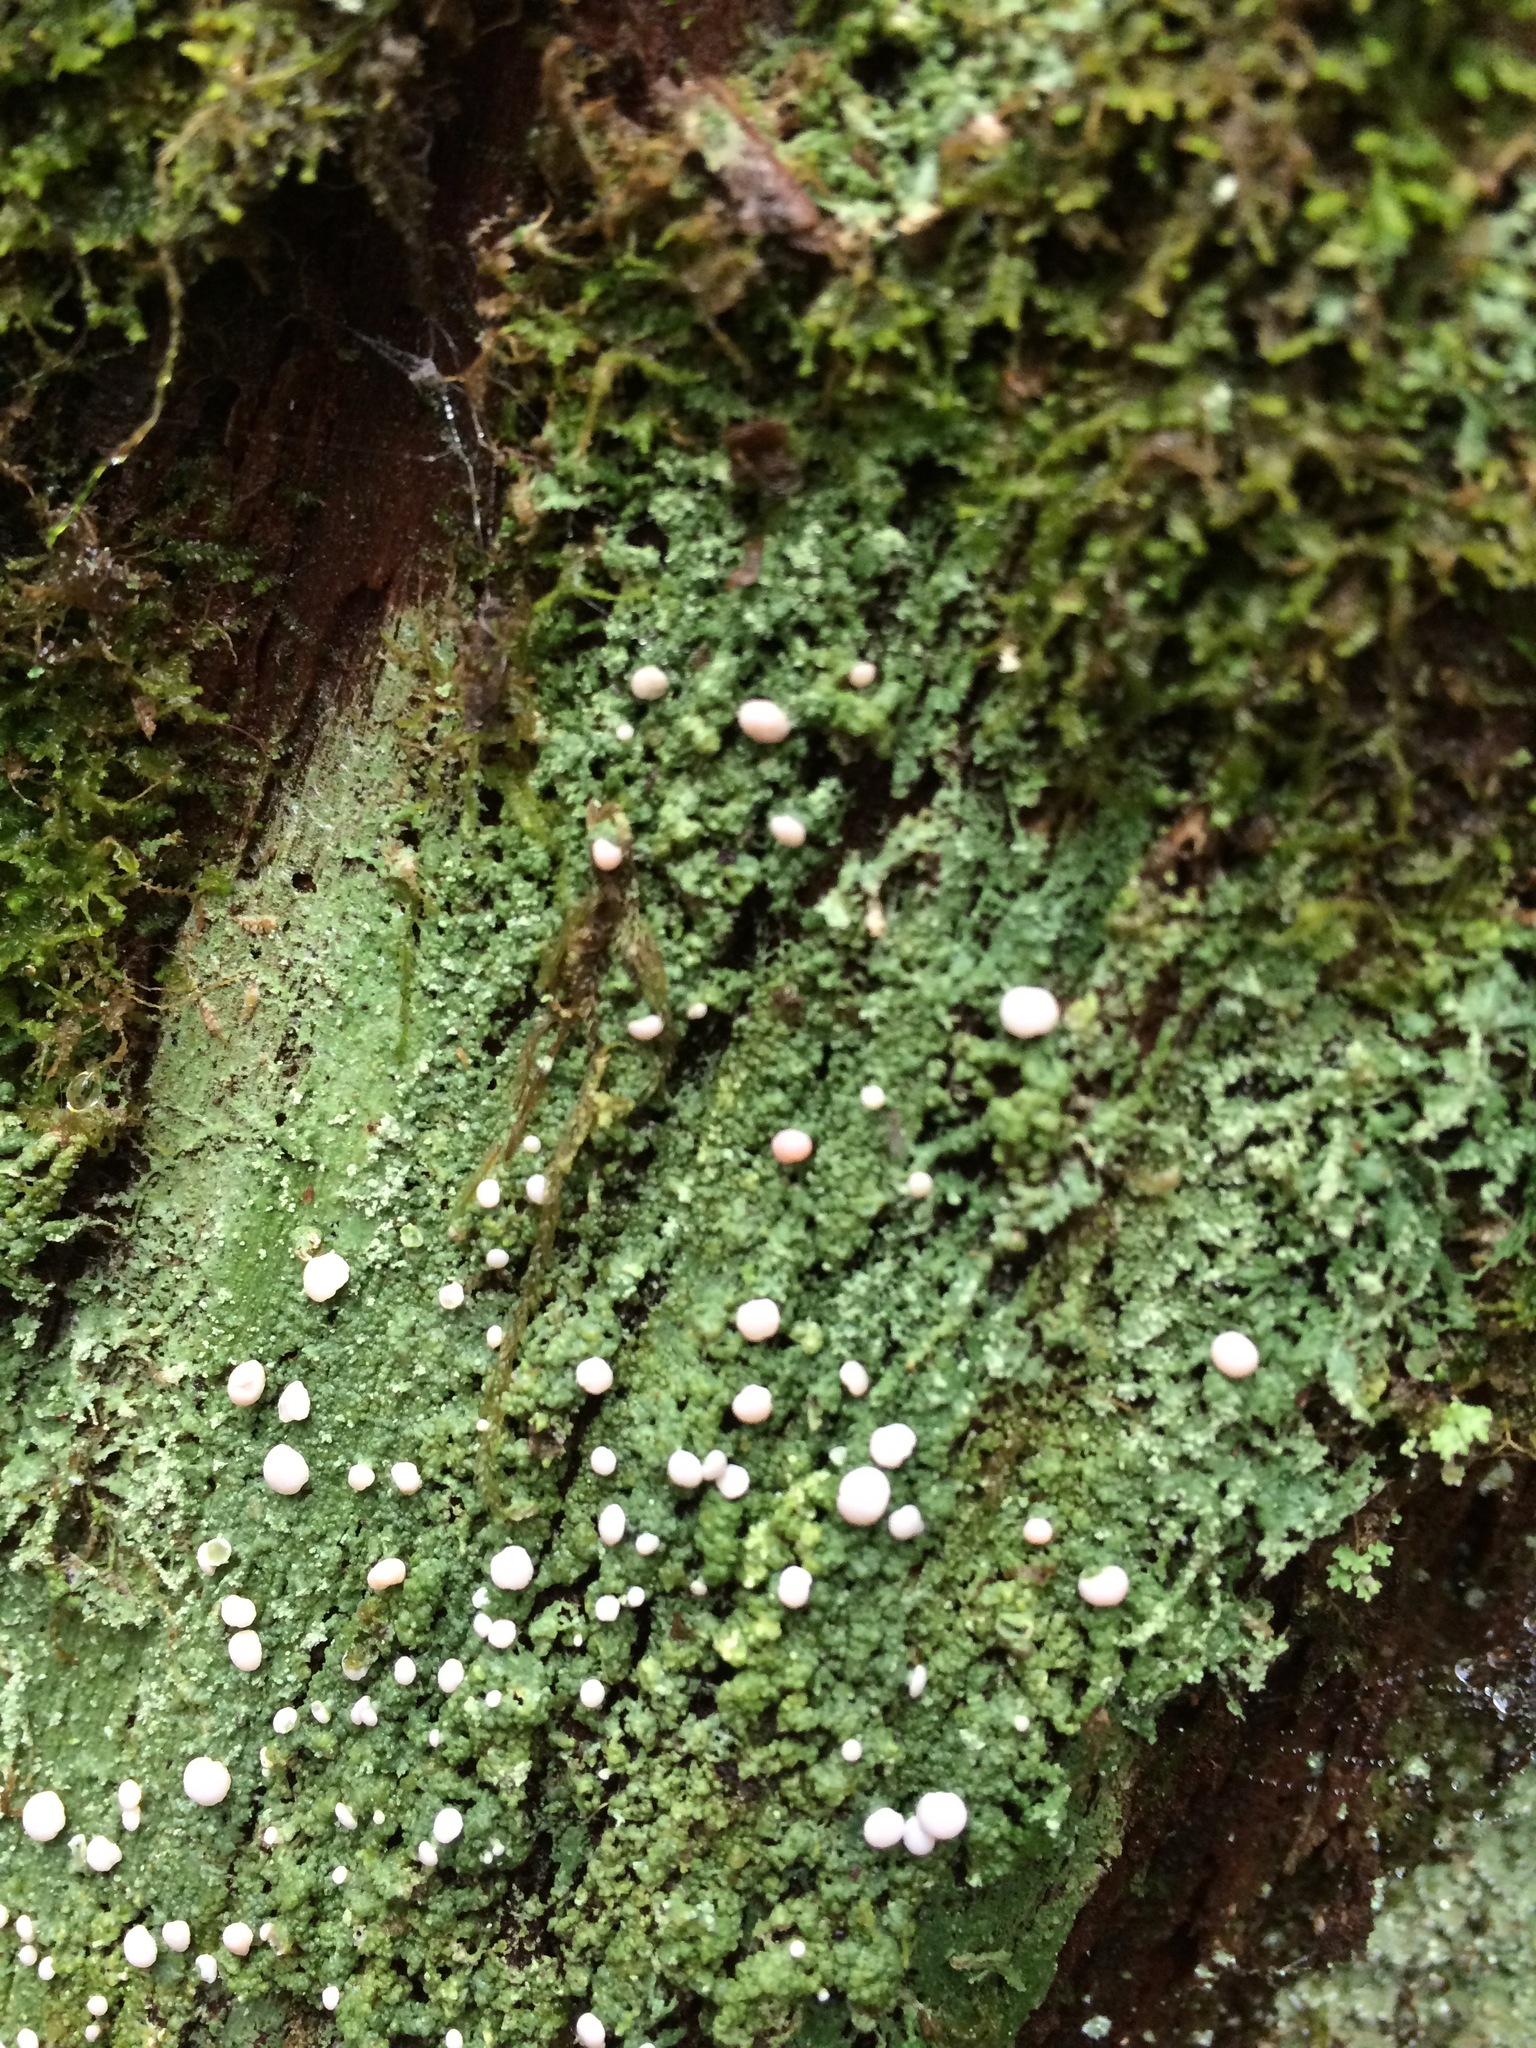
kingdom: Fungi
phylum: Ascomycota
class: Lecanoromycetes
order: Pertusariales
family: Icmadophilaceae
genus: Icmadophila
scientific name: Icmadophila ericetorum
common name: Candy lichen
